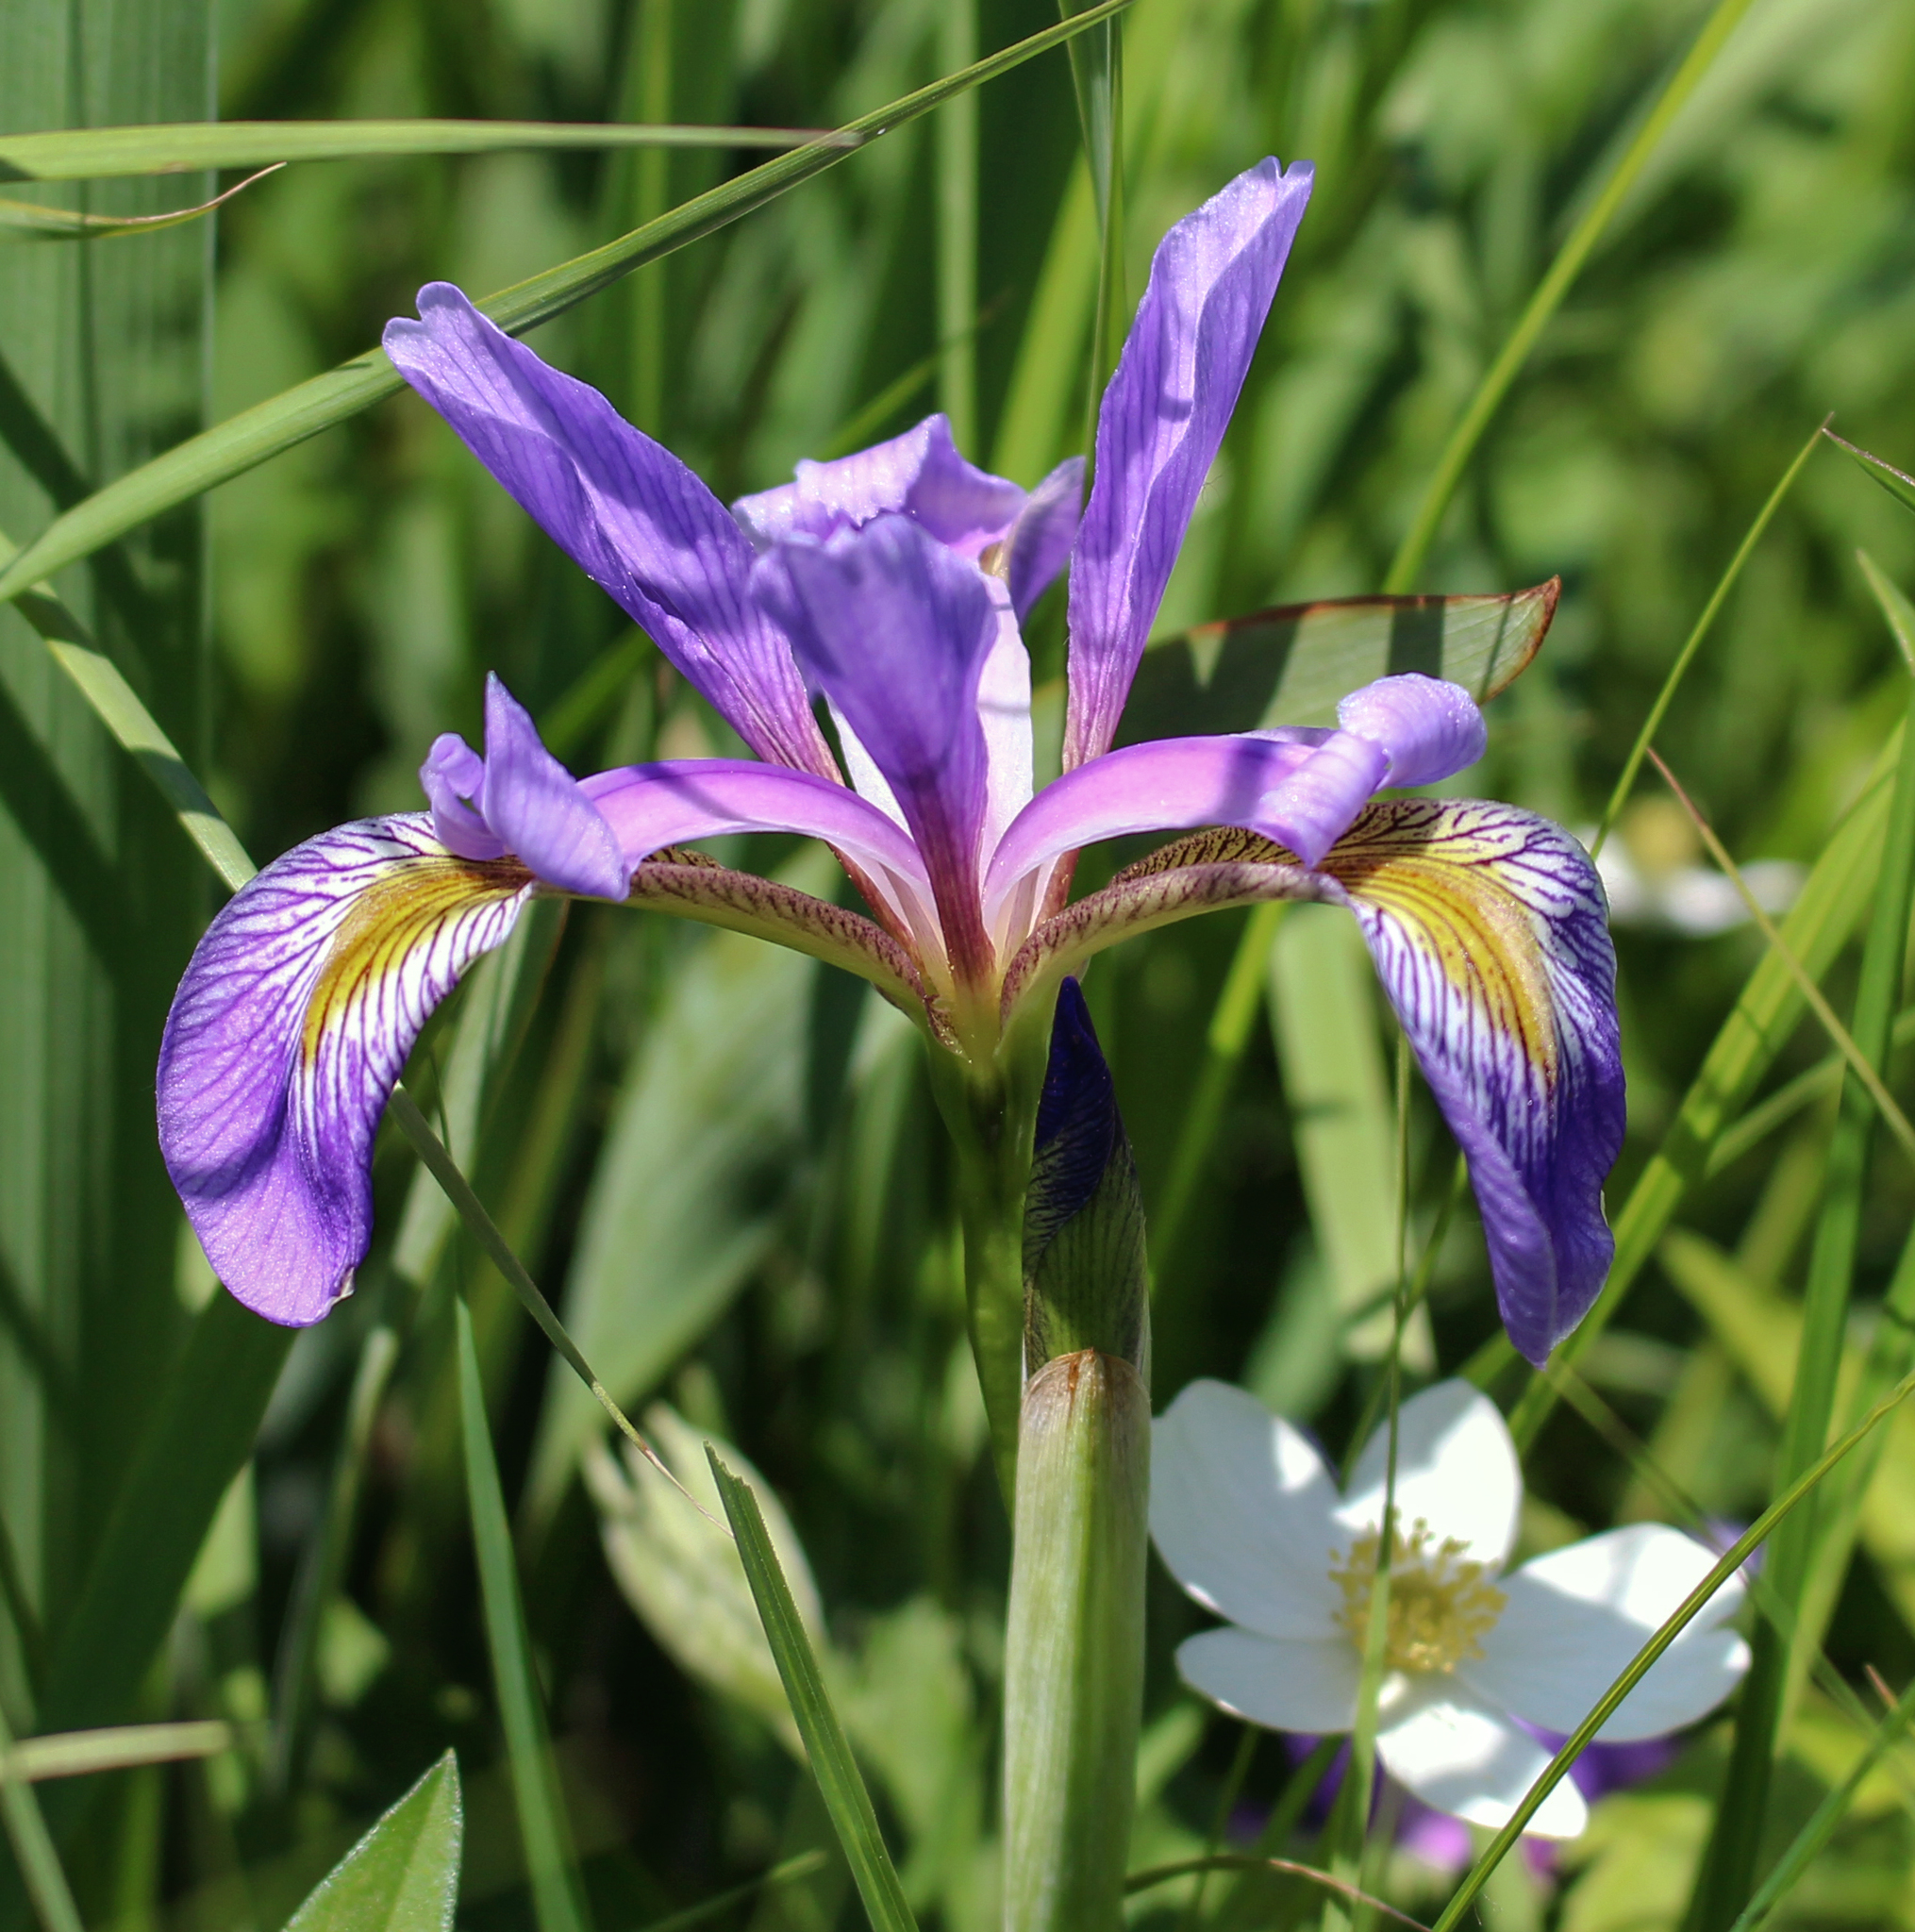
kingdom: Plantae
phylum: Tracheophyta
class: Liliopsida
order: Asparagales
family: Iridaceae
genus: Iris
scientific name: Iris virginica
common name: Southern blue flag
